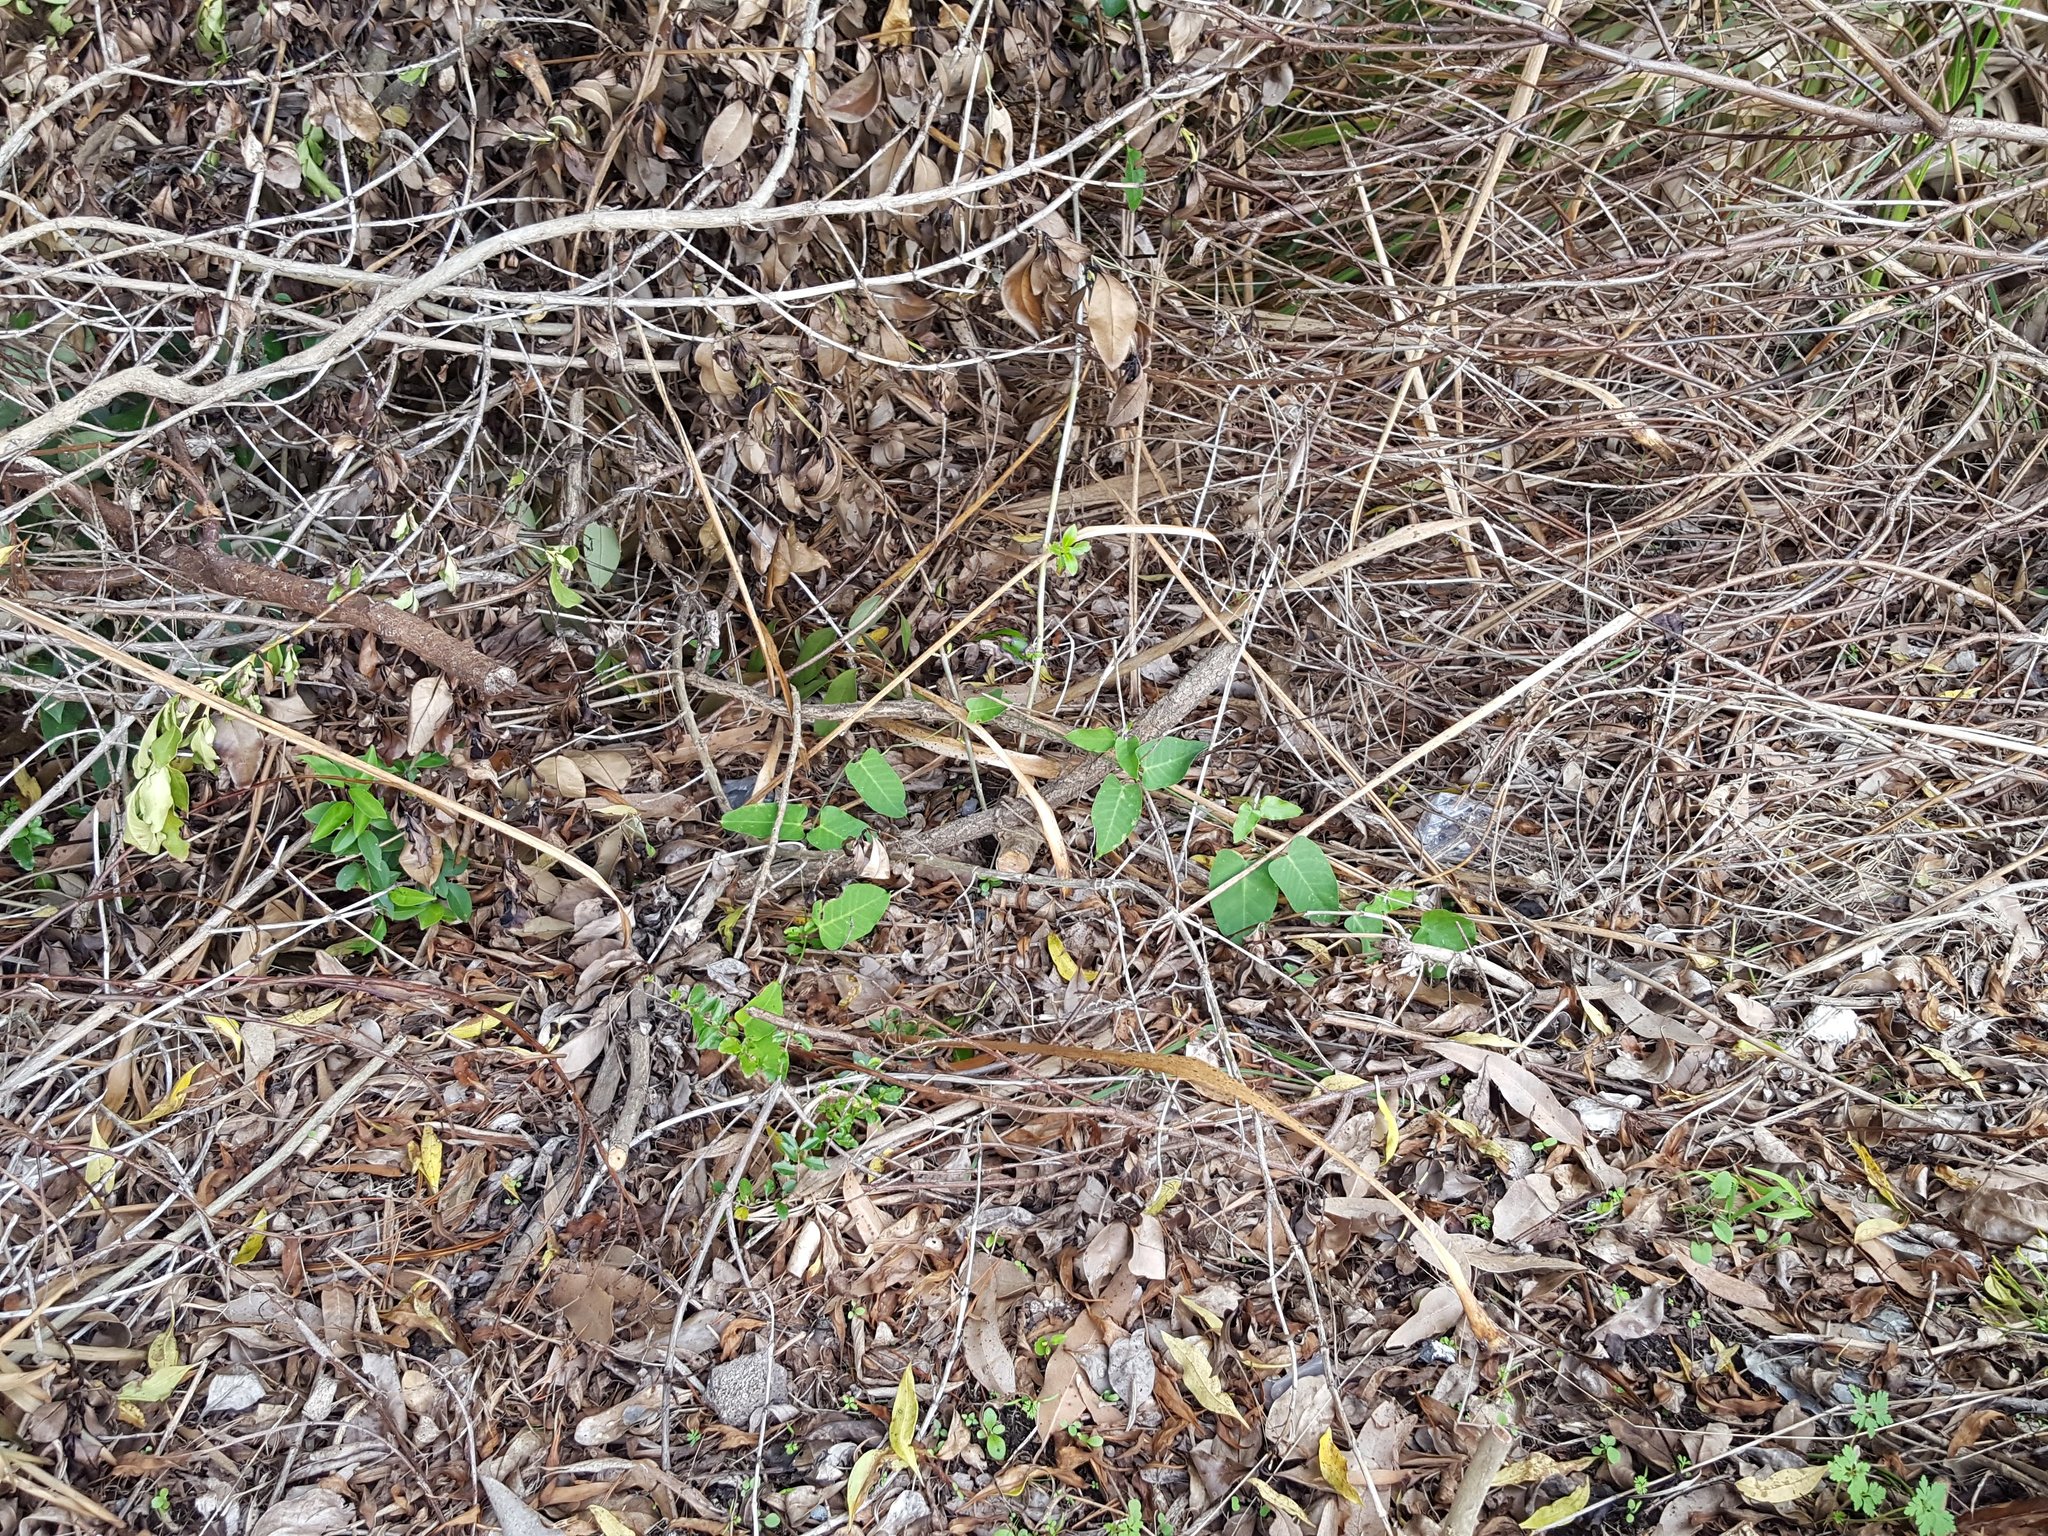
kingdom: Plantae
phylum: Tracheophyta
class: Magnoliopsida
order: Gentianales
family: Apocynaceae
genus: Araujia
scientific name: Araujia sericifera
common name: White bladderflower
